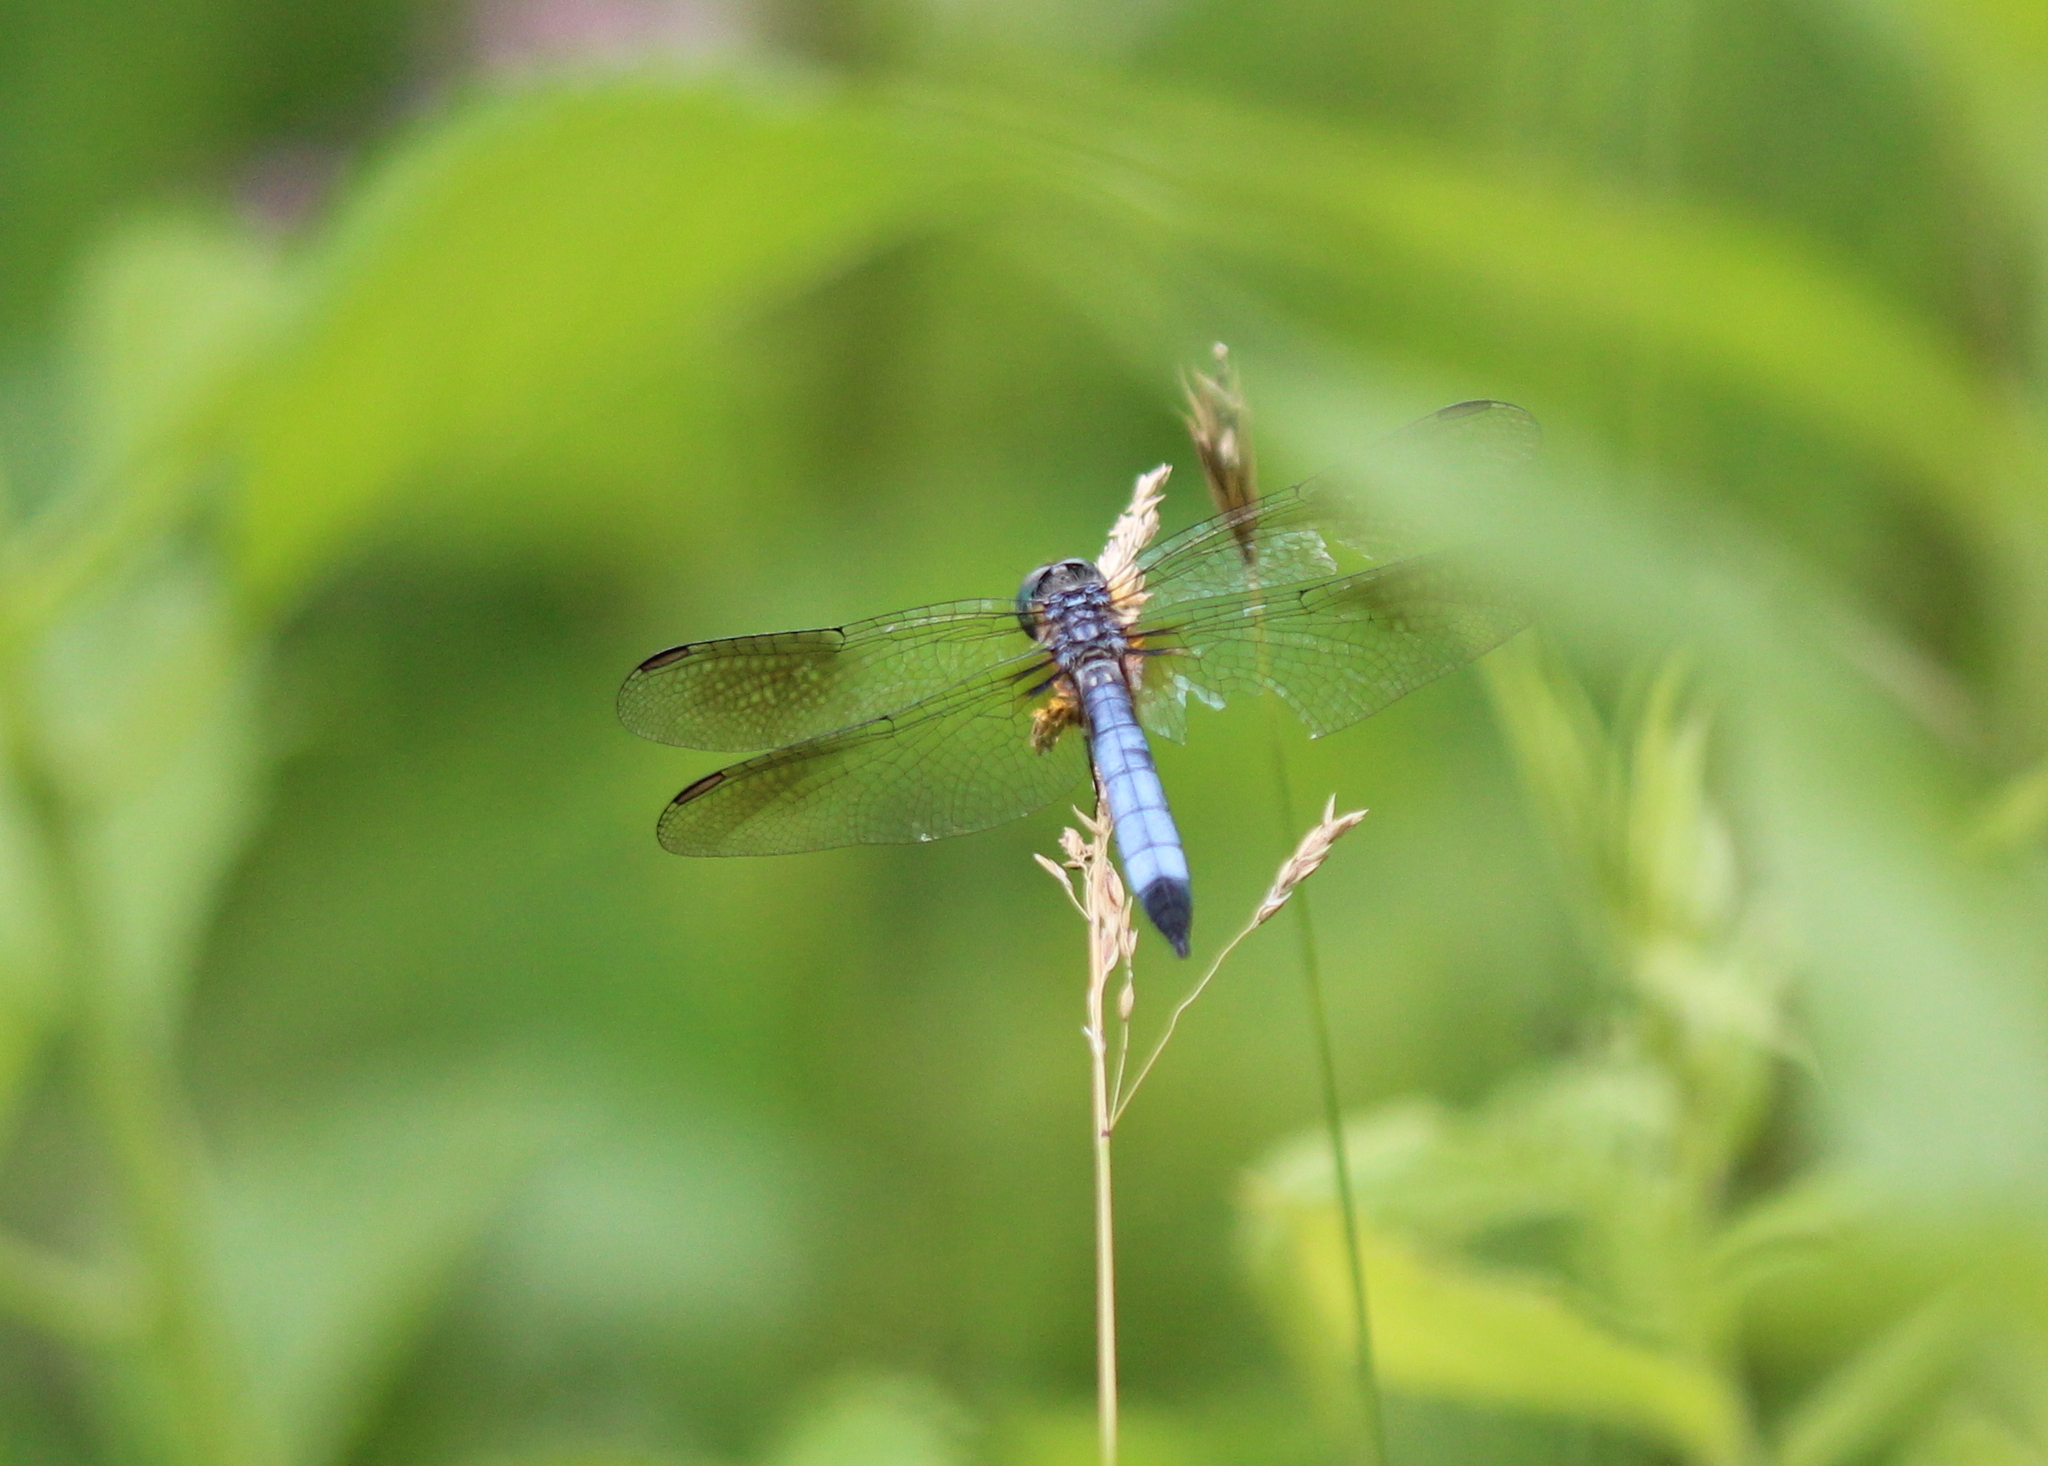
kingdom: Animalia
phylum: Arthropoda
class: Insecta
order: Odonata
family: Libellulidae
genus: Pachydiplax
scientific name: Pachydiplax longipennis
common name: Blue dasher
